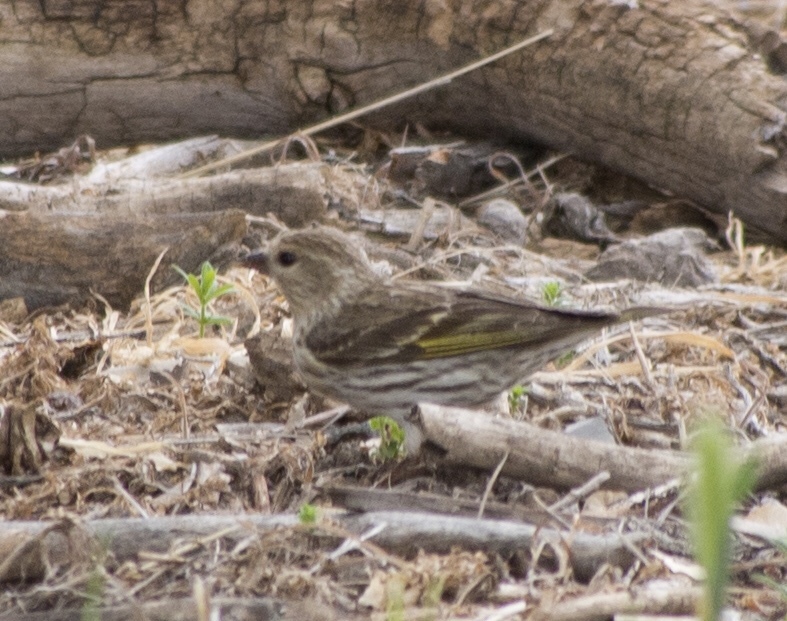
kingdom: Animalia
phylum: Chordata
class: Aves
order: Passeriformes
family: Fringillidae
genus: Spinus
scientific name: Spinus pinus
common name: Pine siskin
